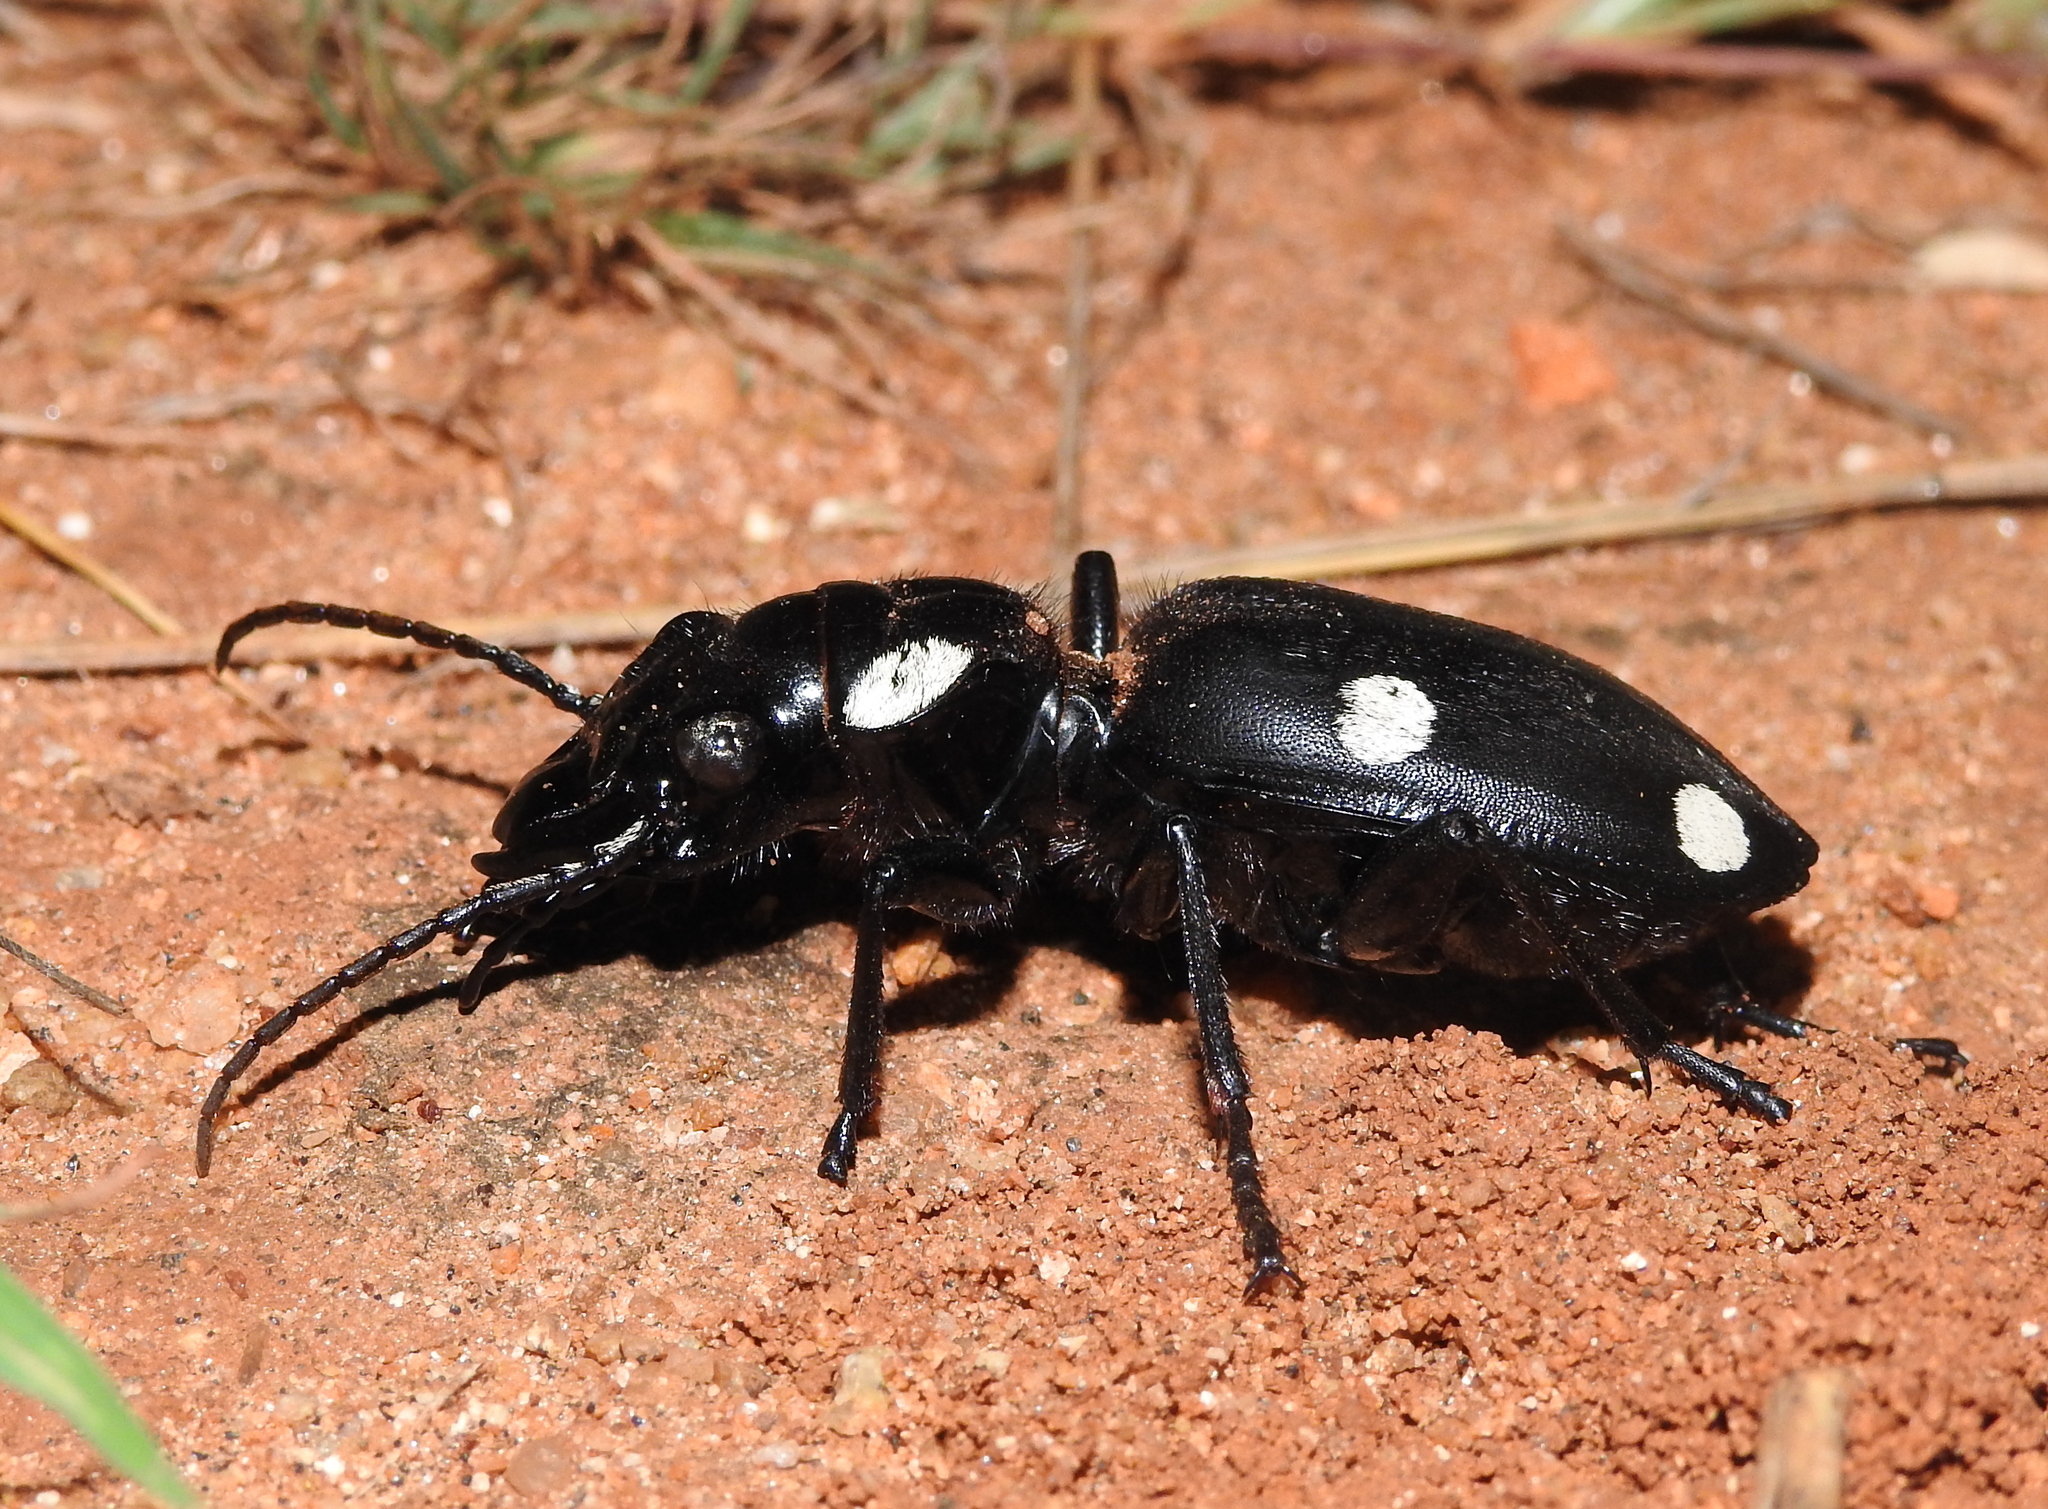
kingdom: Animalia
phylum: Arthropoda
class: Insecta
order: Coleoptera
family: Carabidae
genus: Anthia
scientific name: Anthia sexguttata
